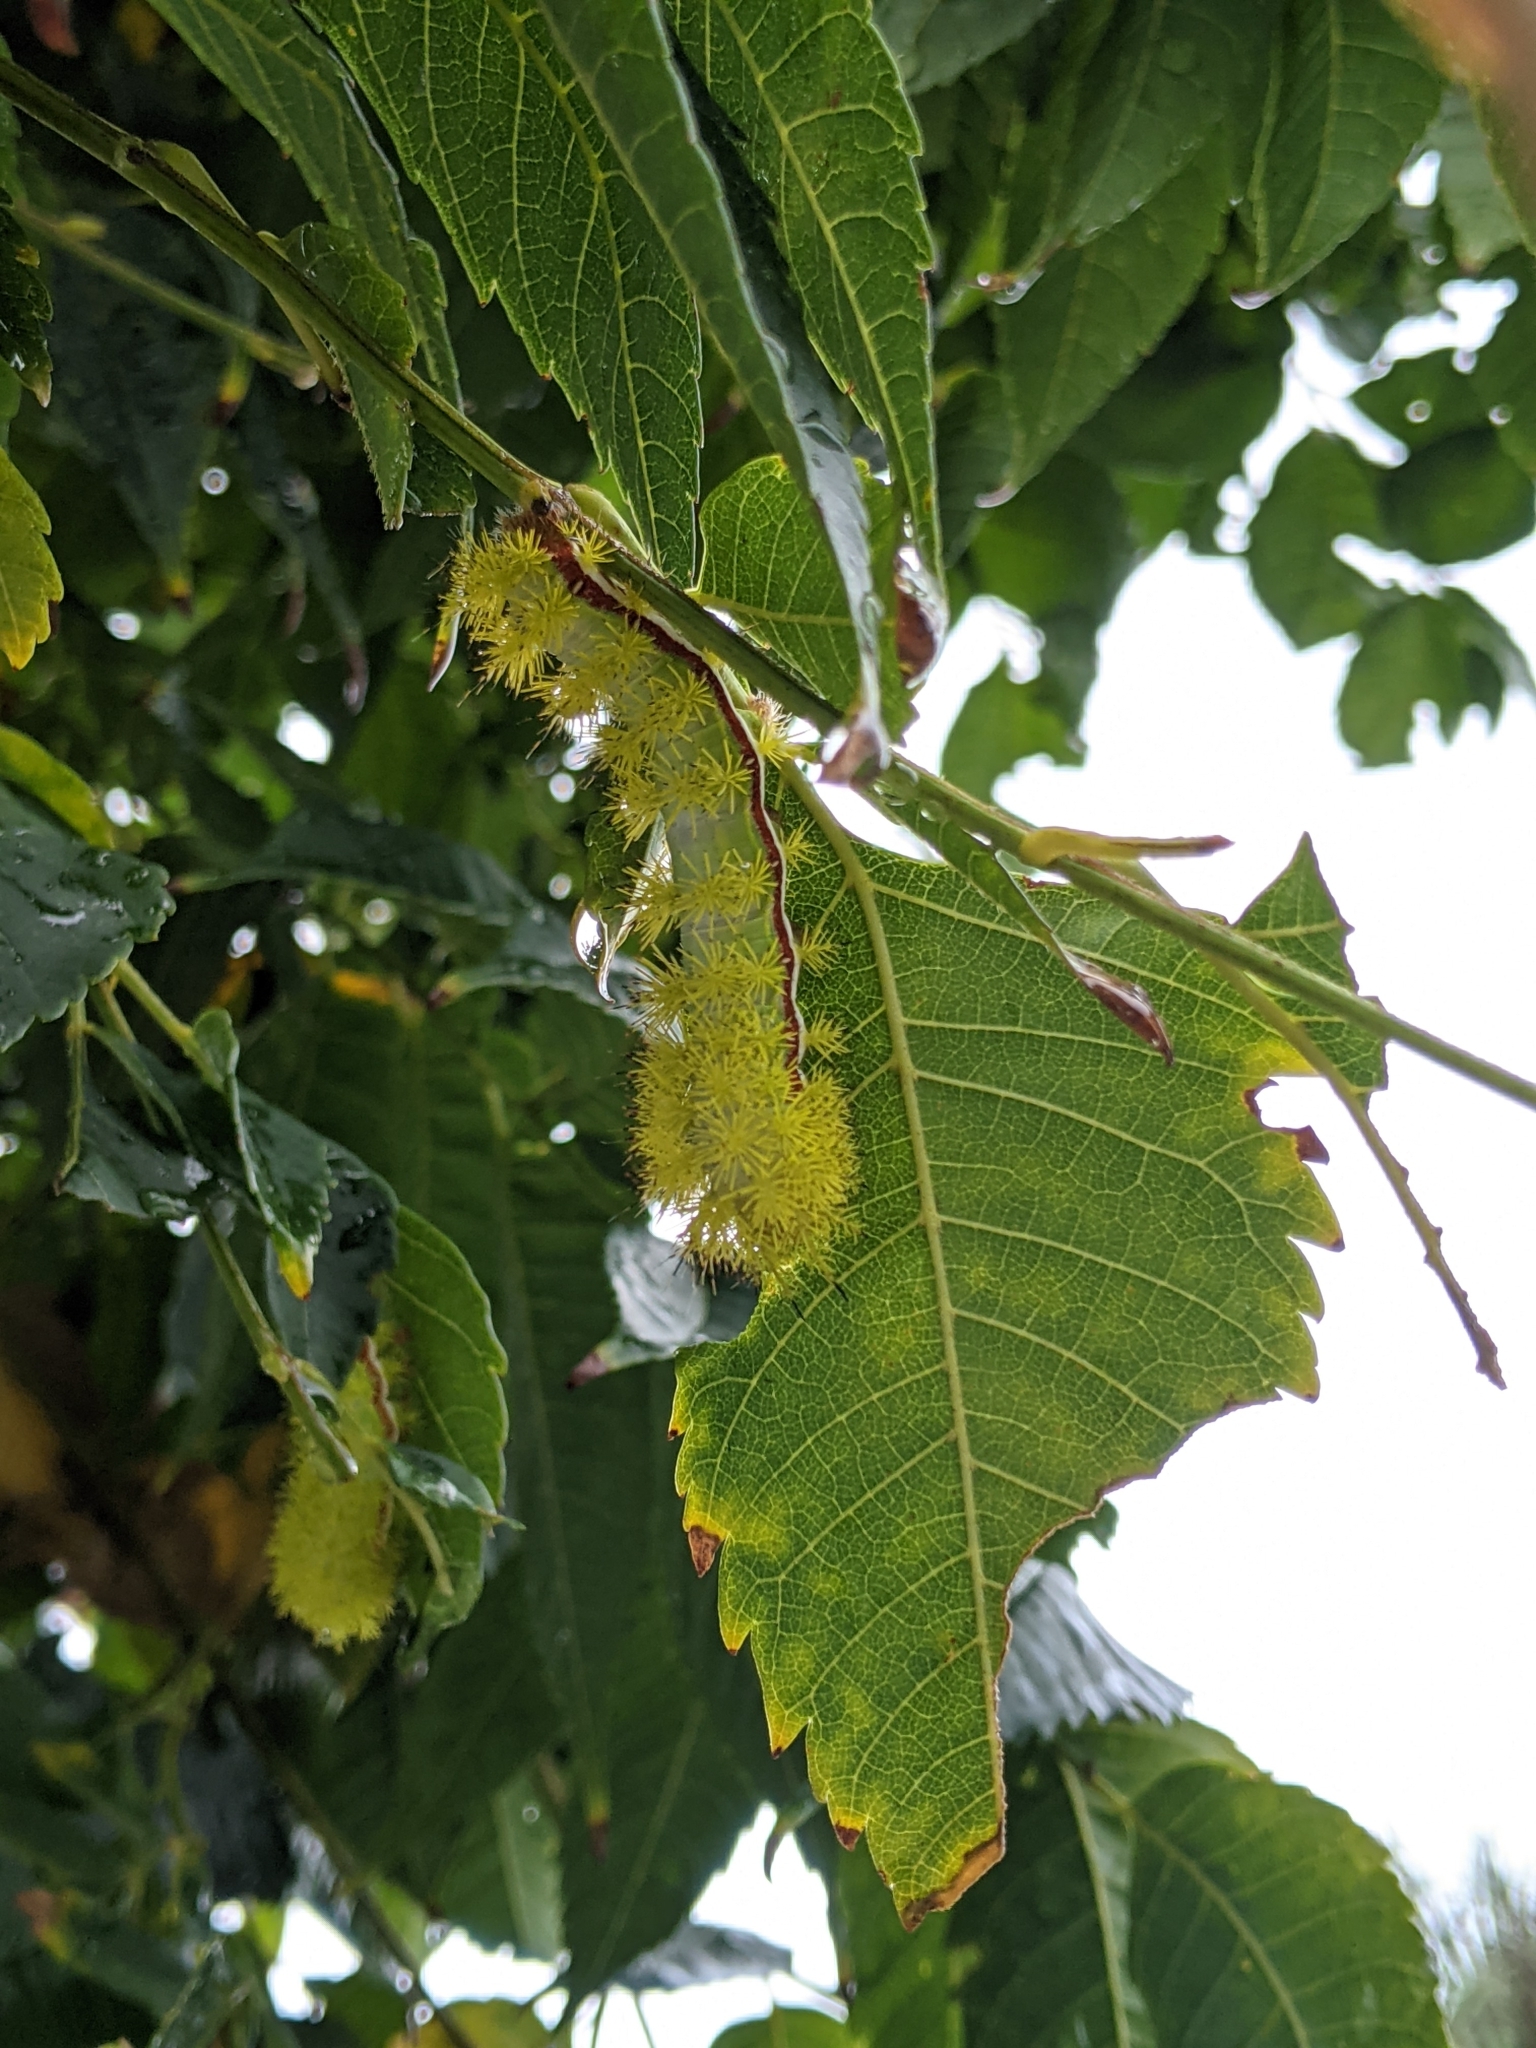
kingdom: Animalia
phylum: Arthropoda
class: Insecta
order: Lepidoptera
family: Saturniidae
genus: Automeris
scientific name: Automeris io
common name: Io moth
